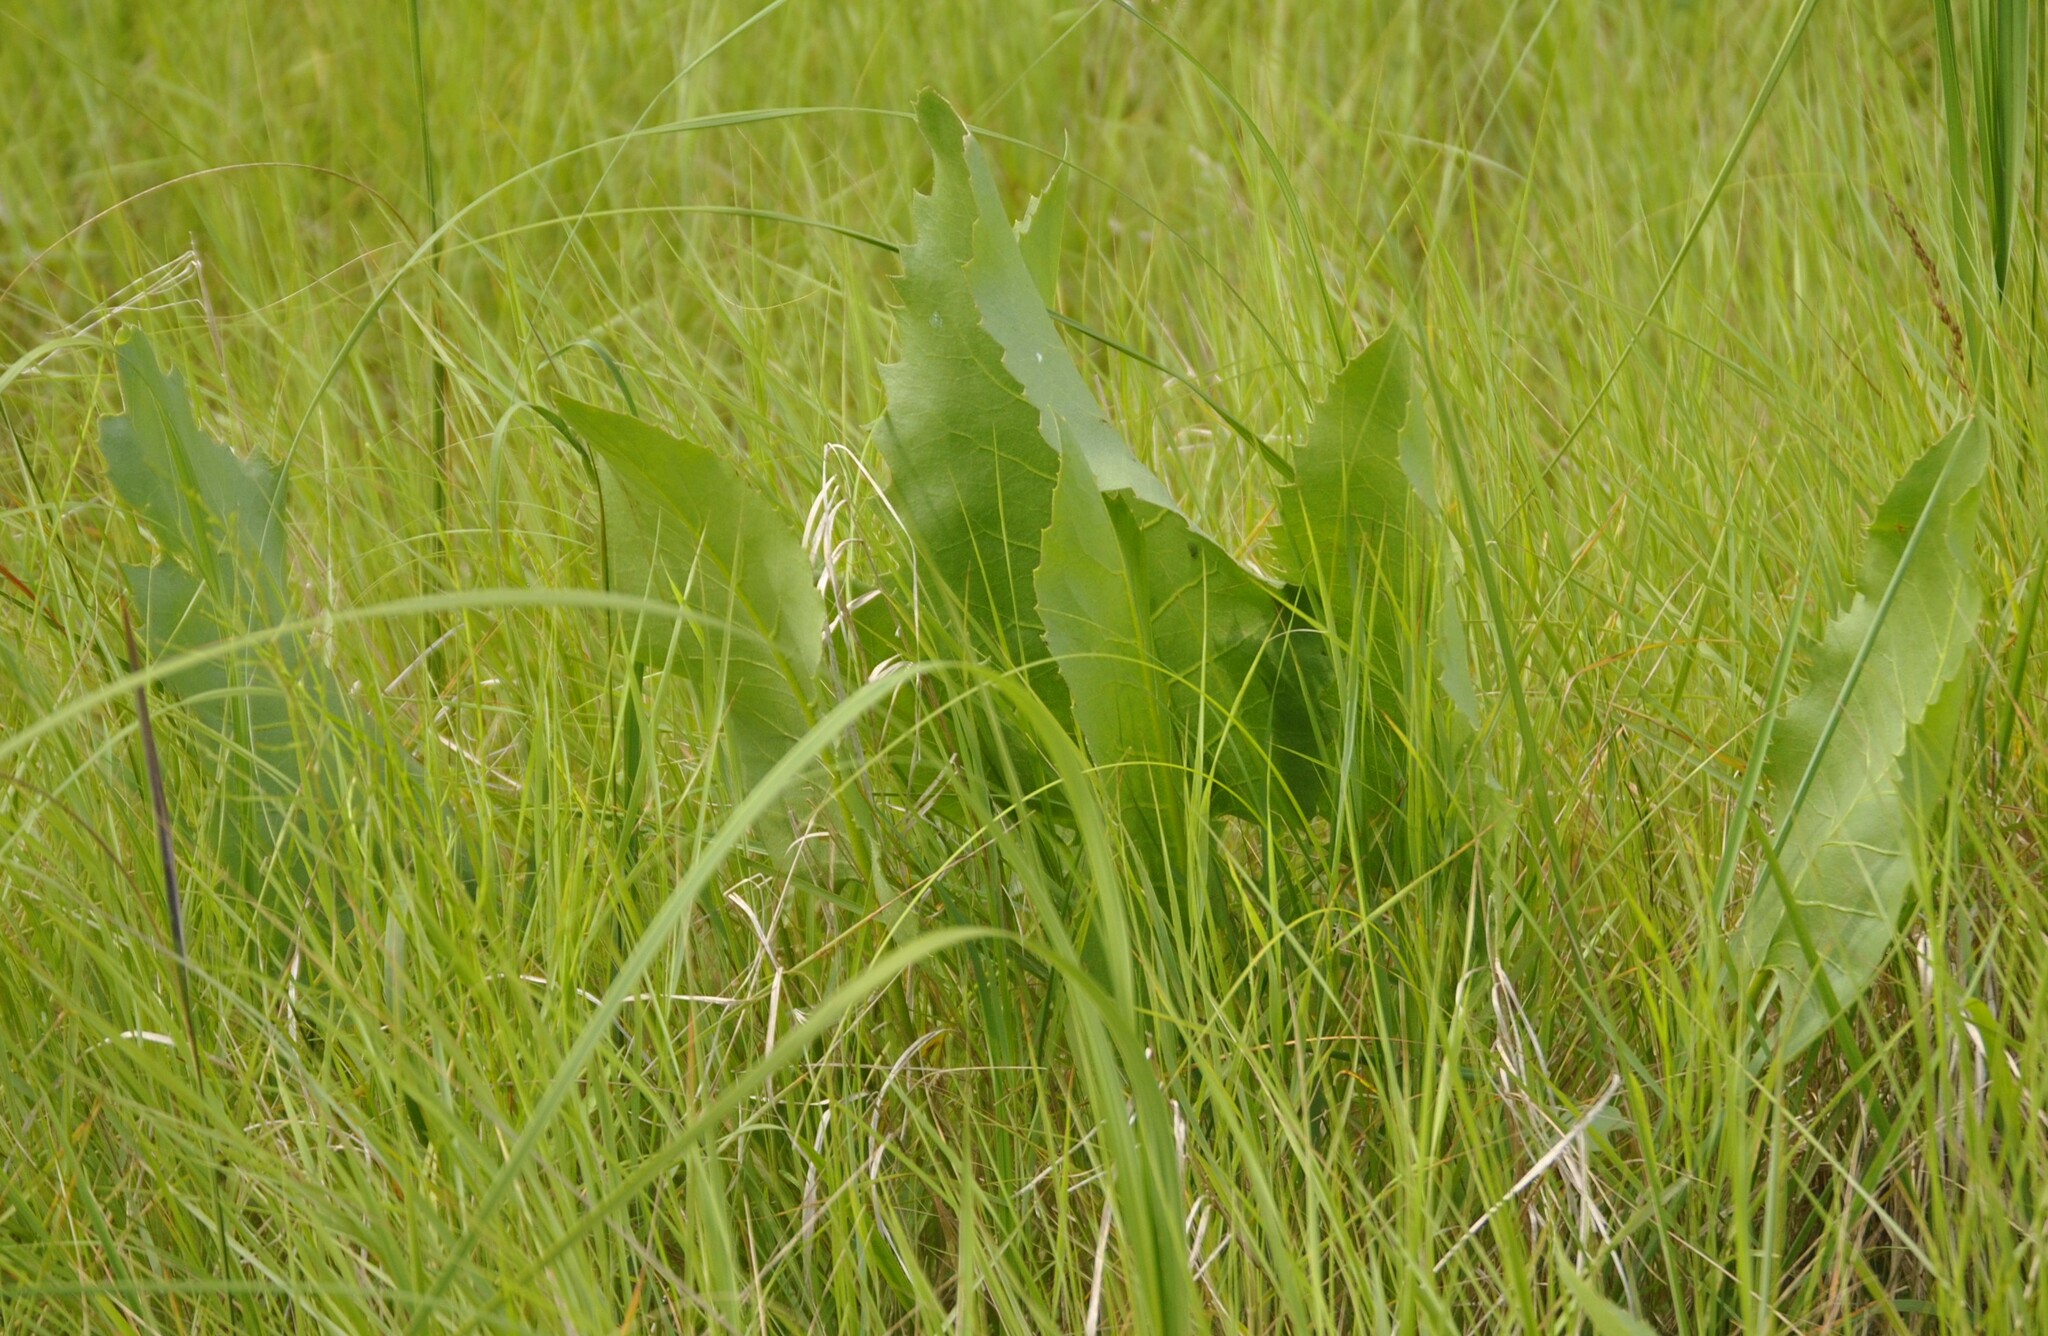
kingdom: Plantae
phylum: Tracheophyta
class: Magnoliopsida
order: Asterales
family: Asteraceae
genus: Silphium
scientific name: Silphium terebinthinaceum
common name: Basal-leaf rosinweed
